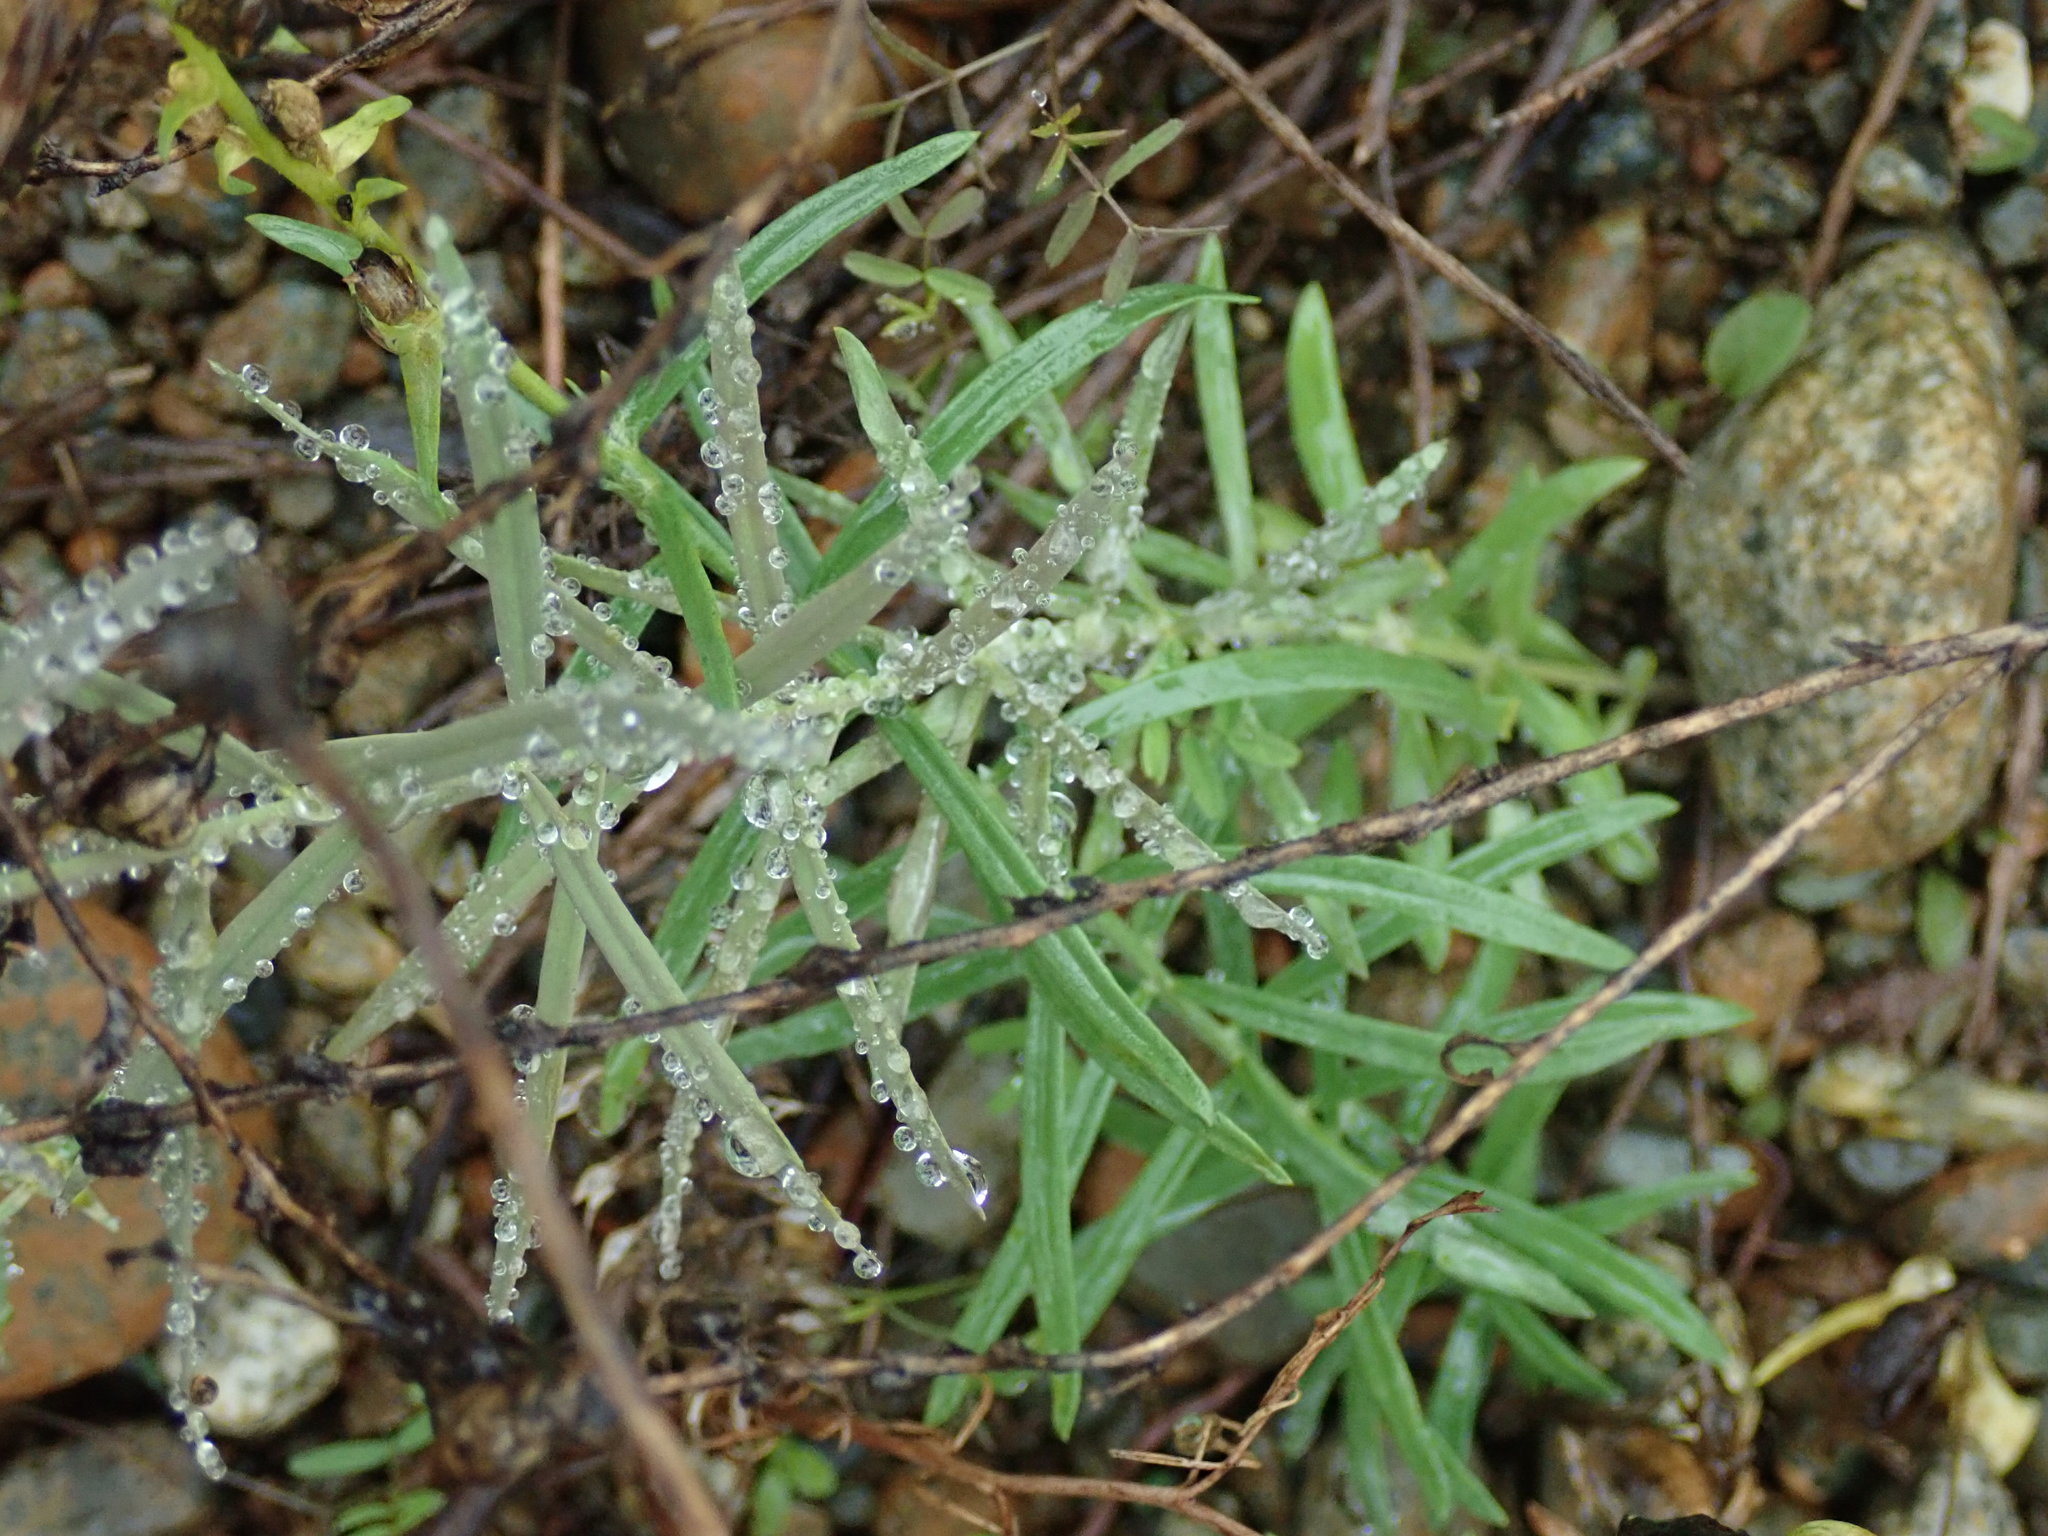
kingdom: Plantae
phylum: Tracheophyta
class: Magnoliopsida
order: Lamiales
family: Plantaginaceae
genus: Linaria
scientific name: Linaria vulgaris
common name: Butter and eggs
